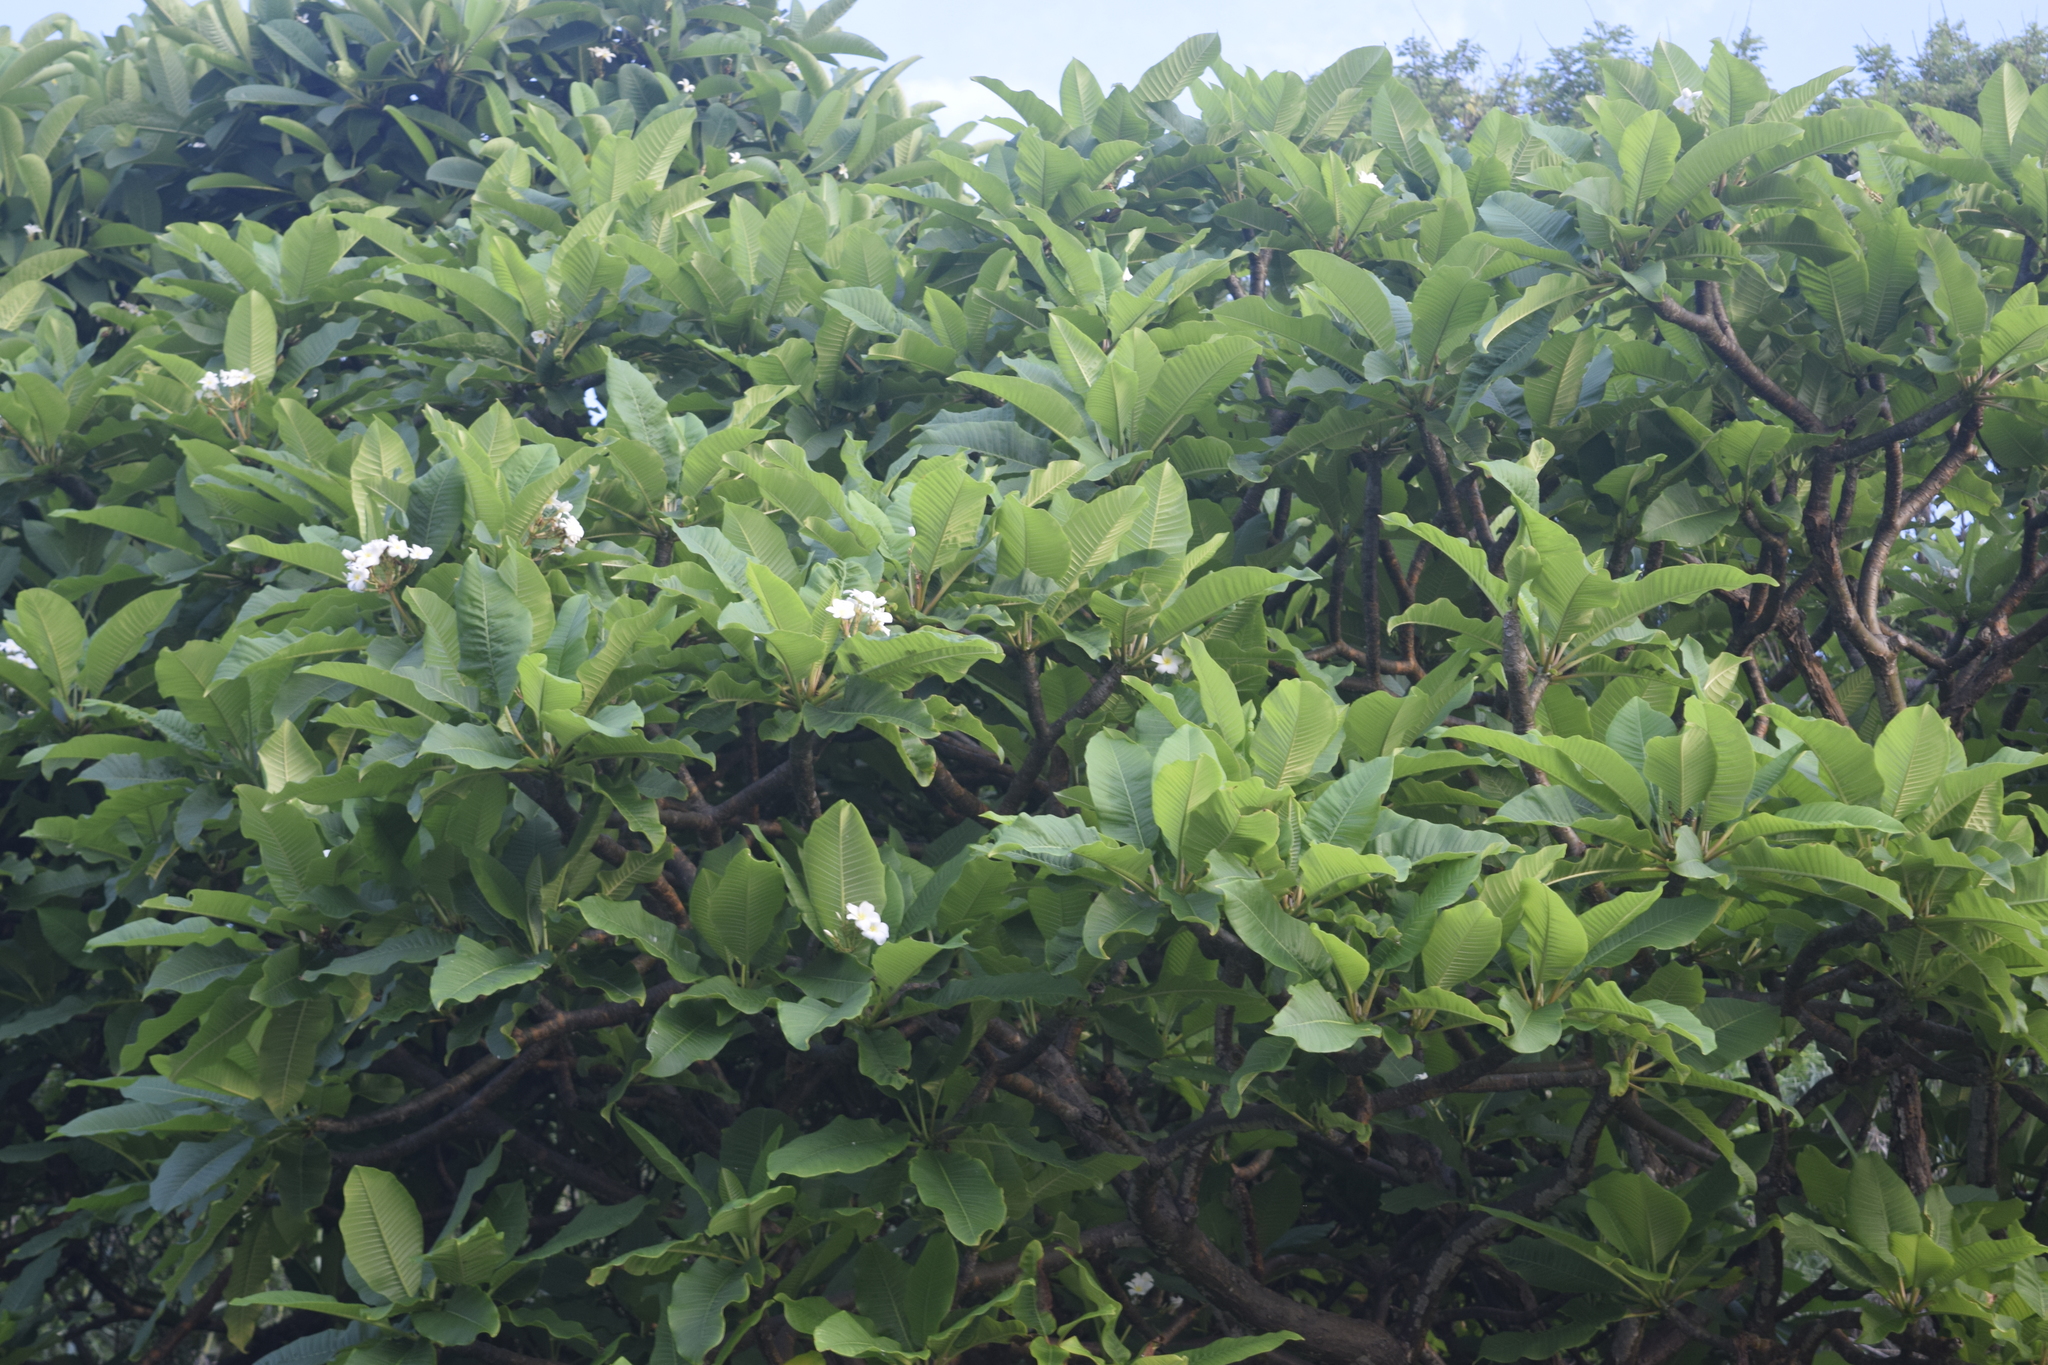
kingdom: Plantae
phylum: Tracheophyta
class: Magnoliopsida
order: Gentianales
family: Apocynaceae
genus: Plumeria
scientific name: Plumeria rubra
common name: Pagoda-tree
